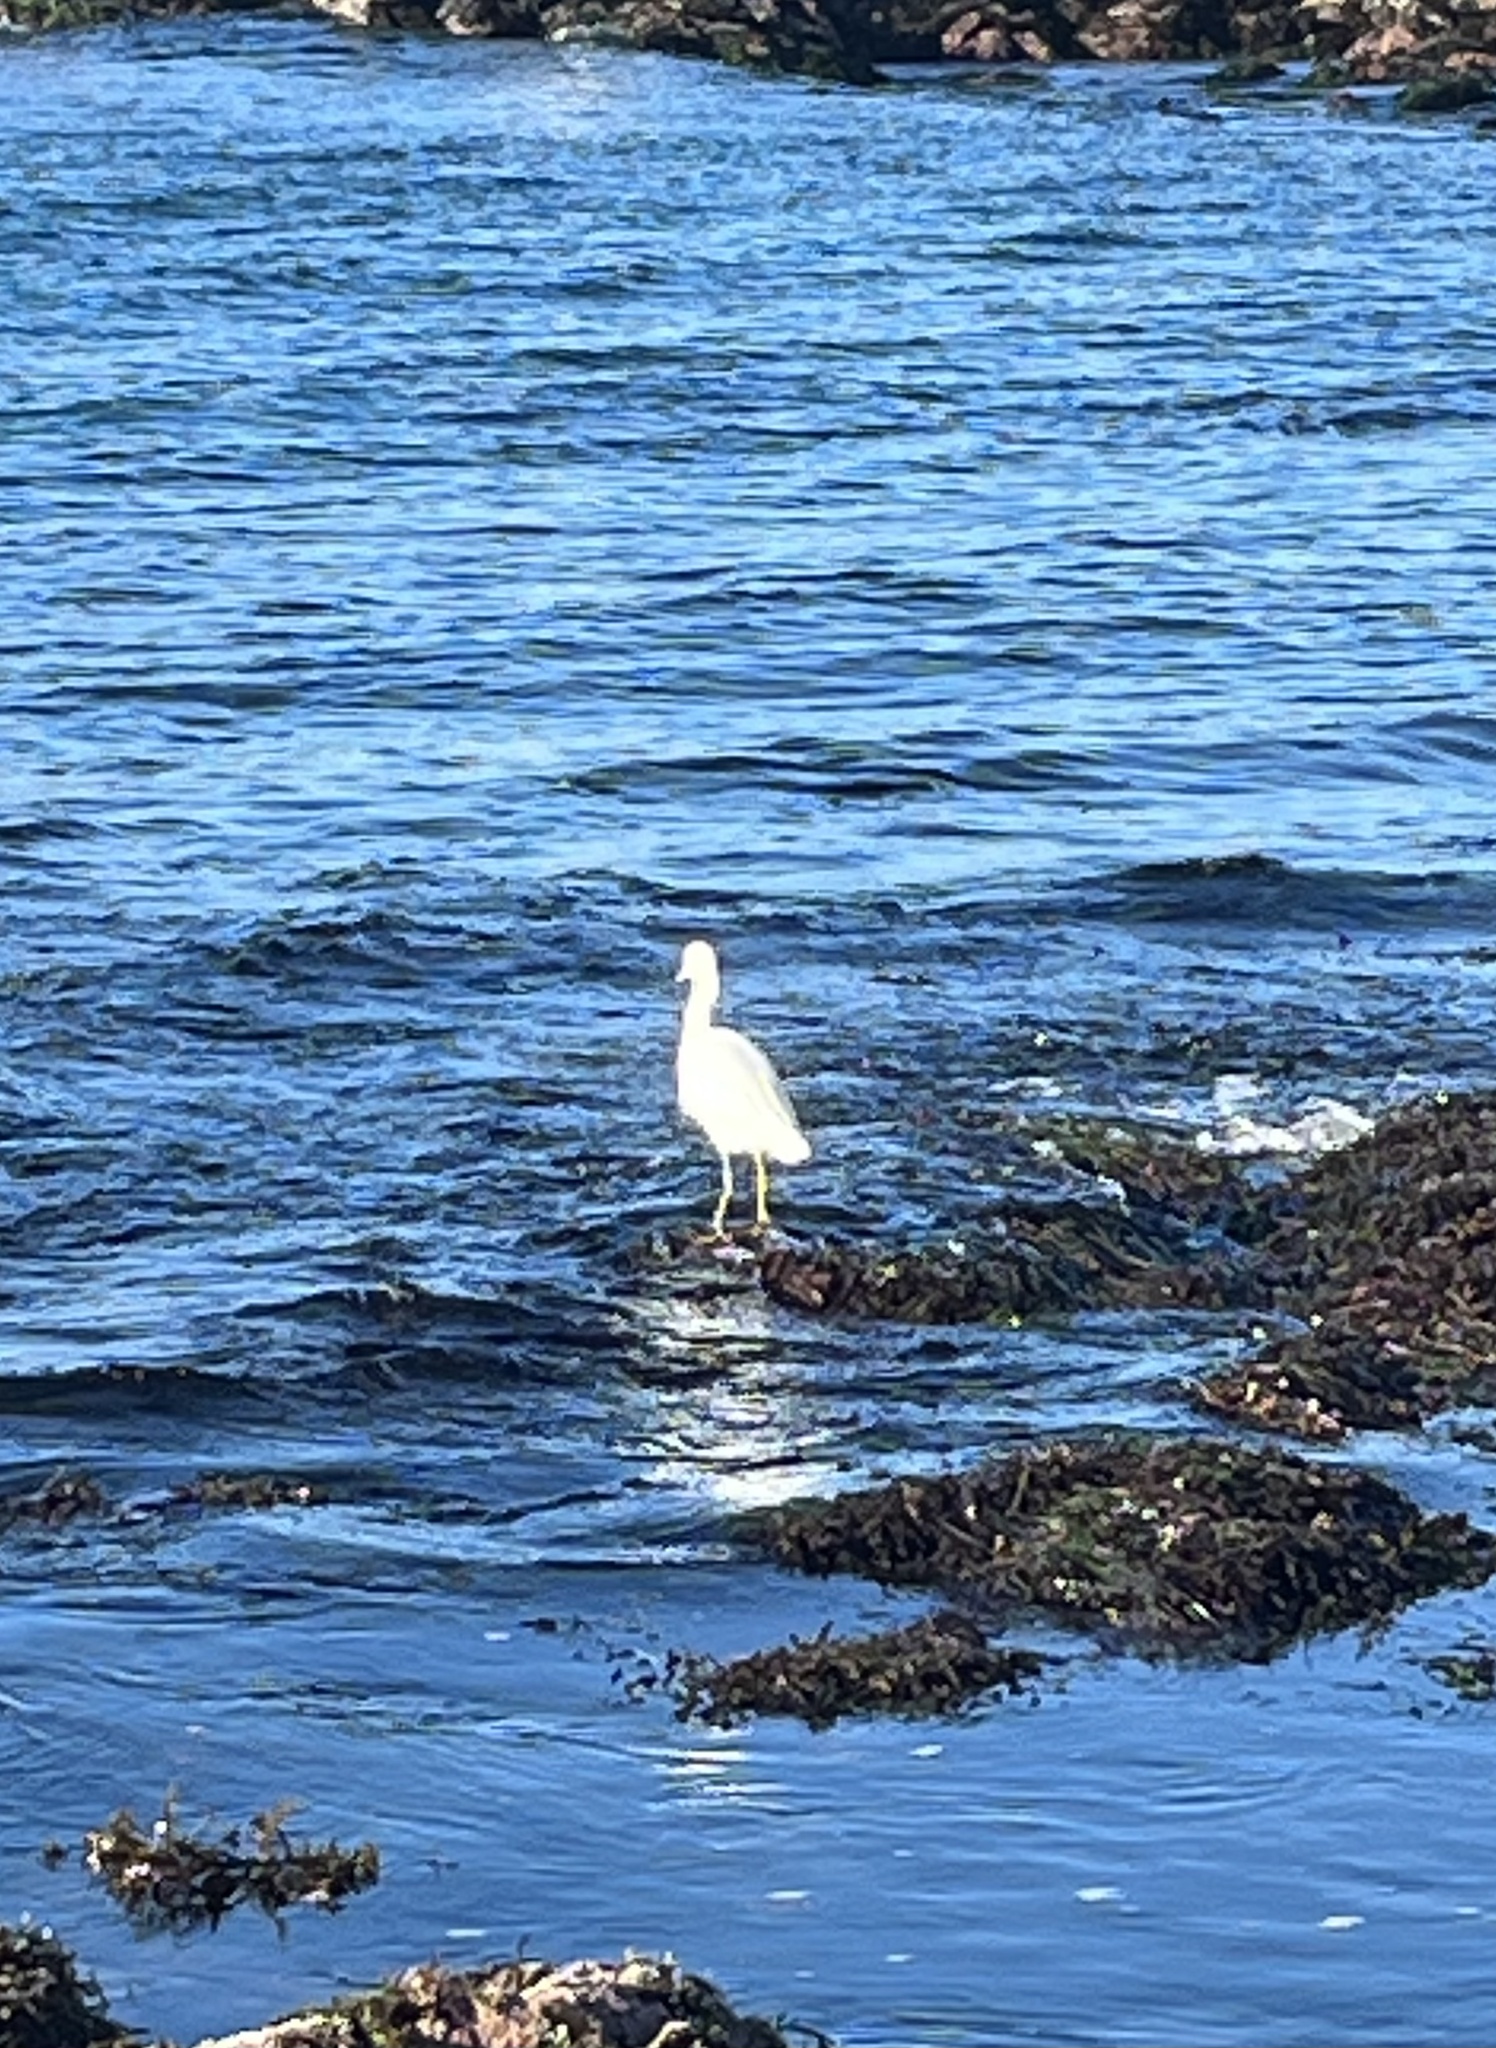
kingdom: Animalia
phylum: Chordata
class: Aves
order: Pelecaniformes
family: Ardeidae
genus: Egretta
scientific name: Egretta thula
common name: Snowy egret
